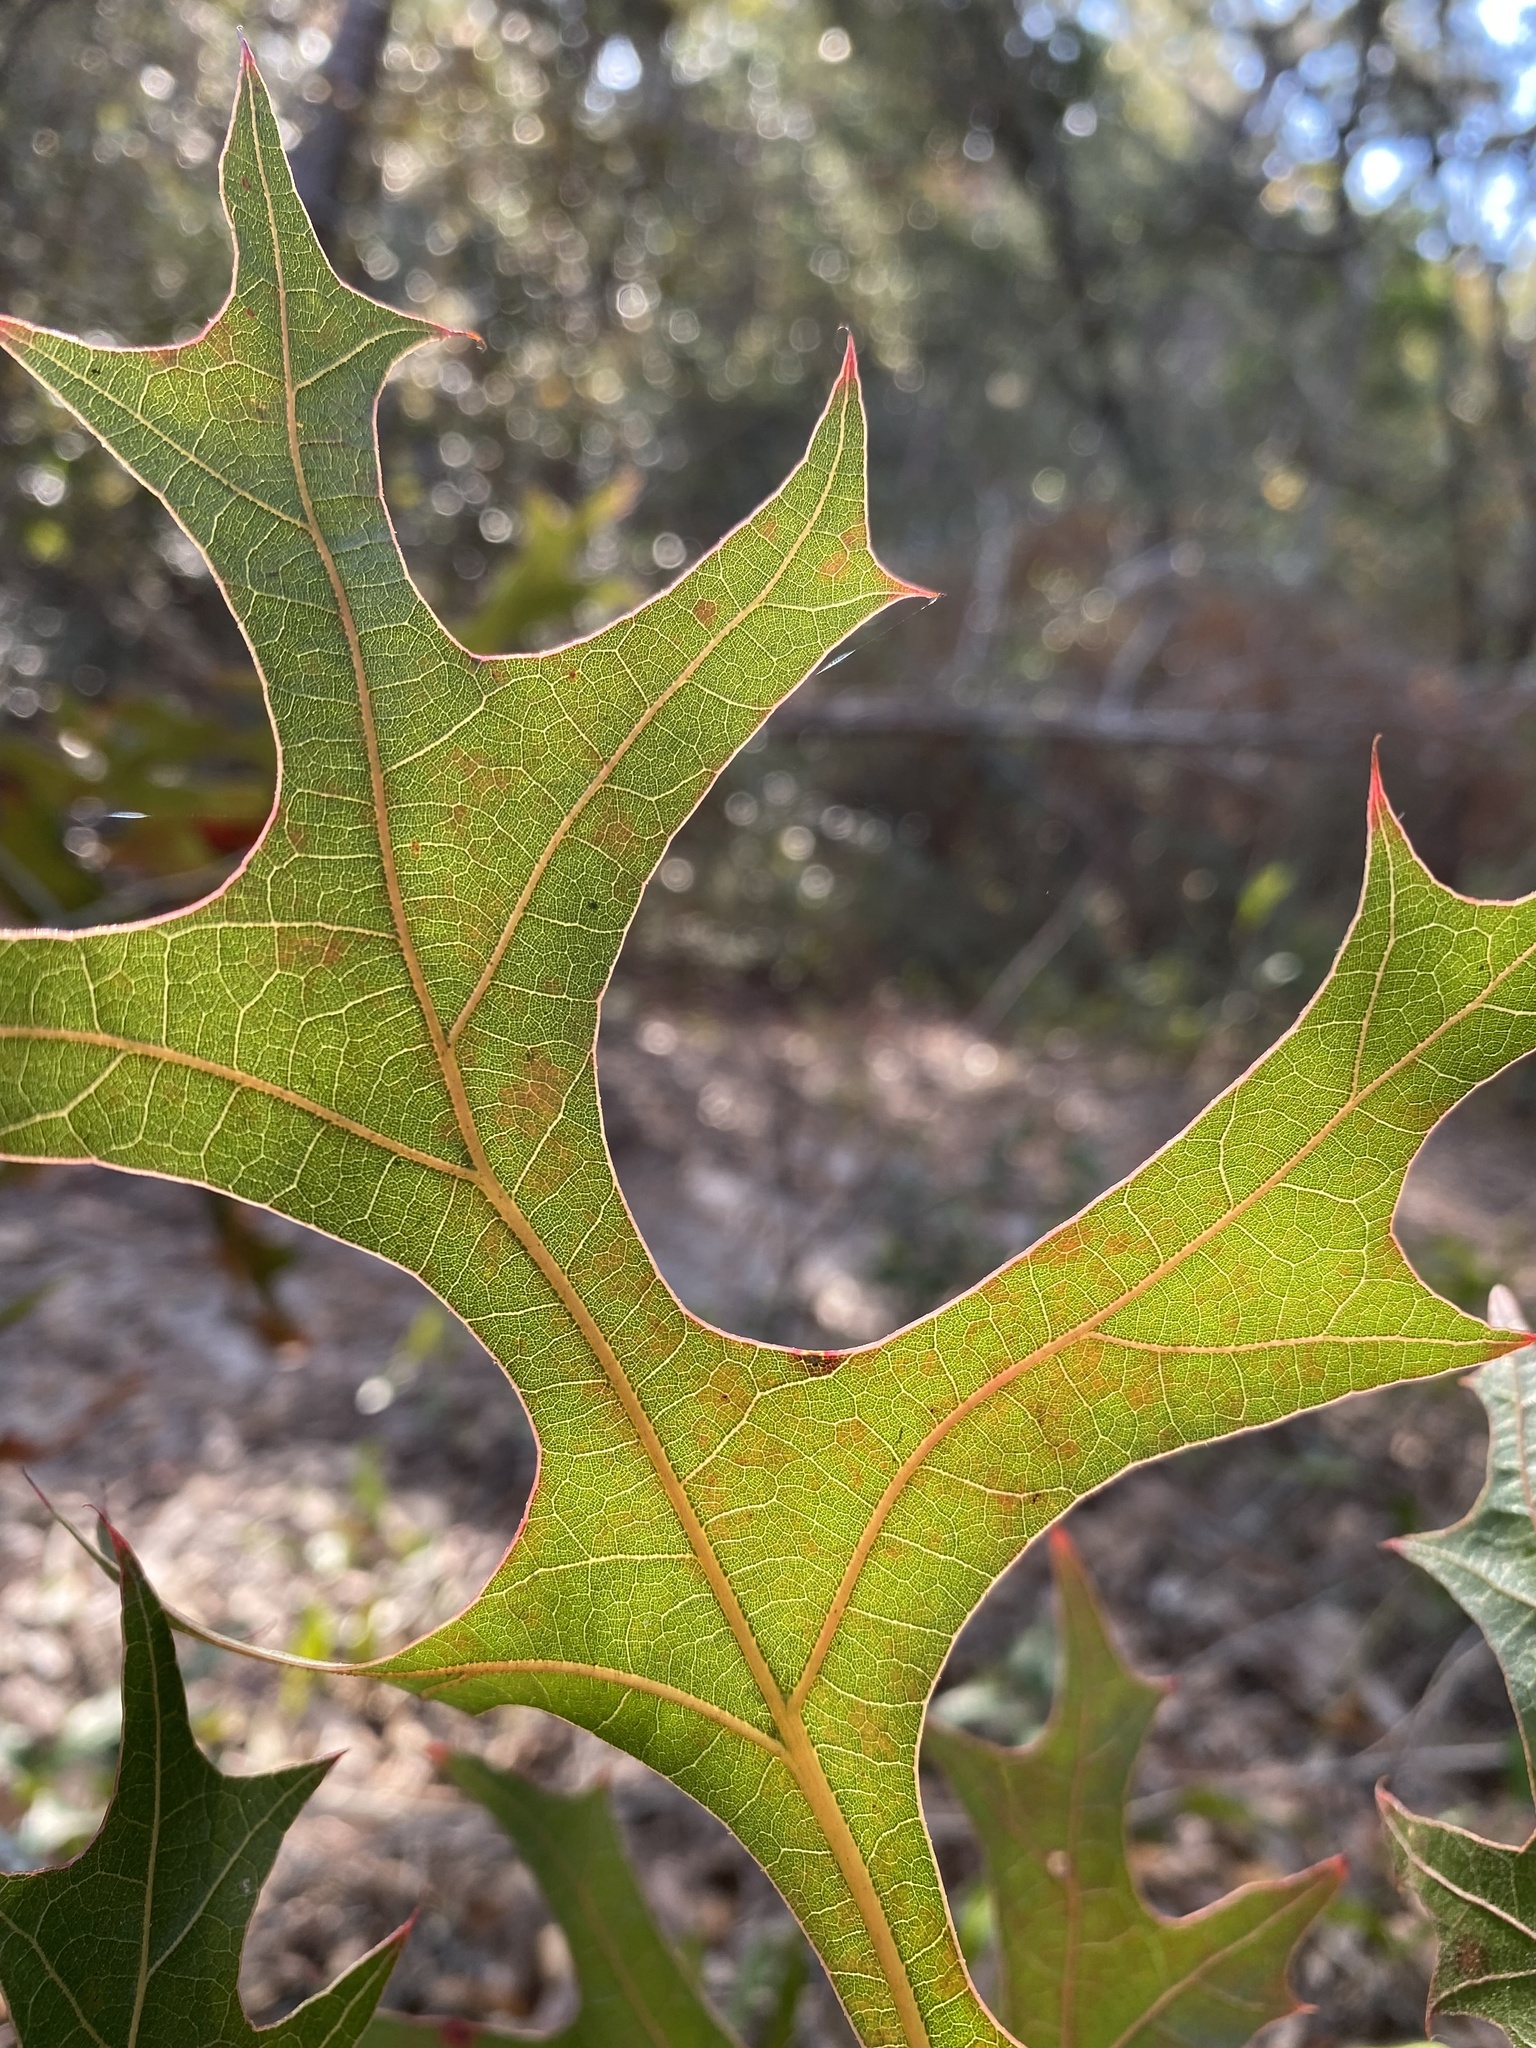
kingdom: Plantae
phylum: Tracheophyta
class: Magnoliopsida
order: Fagales
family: Fagaceae
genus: Quercus
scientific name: Quercus laevis
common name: Turkey oak
